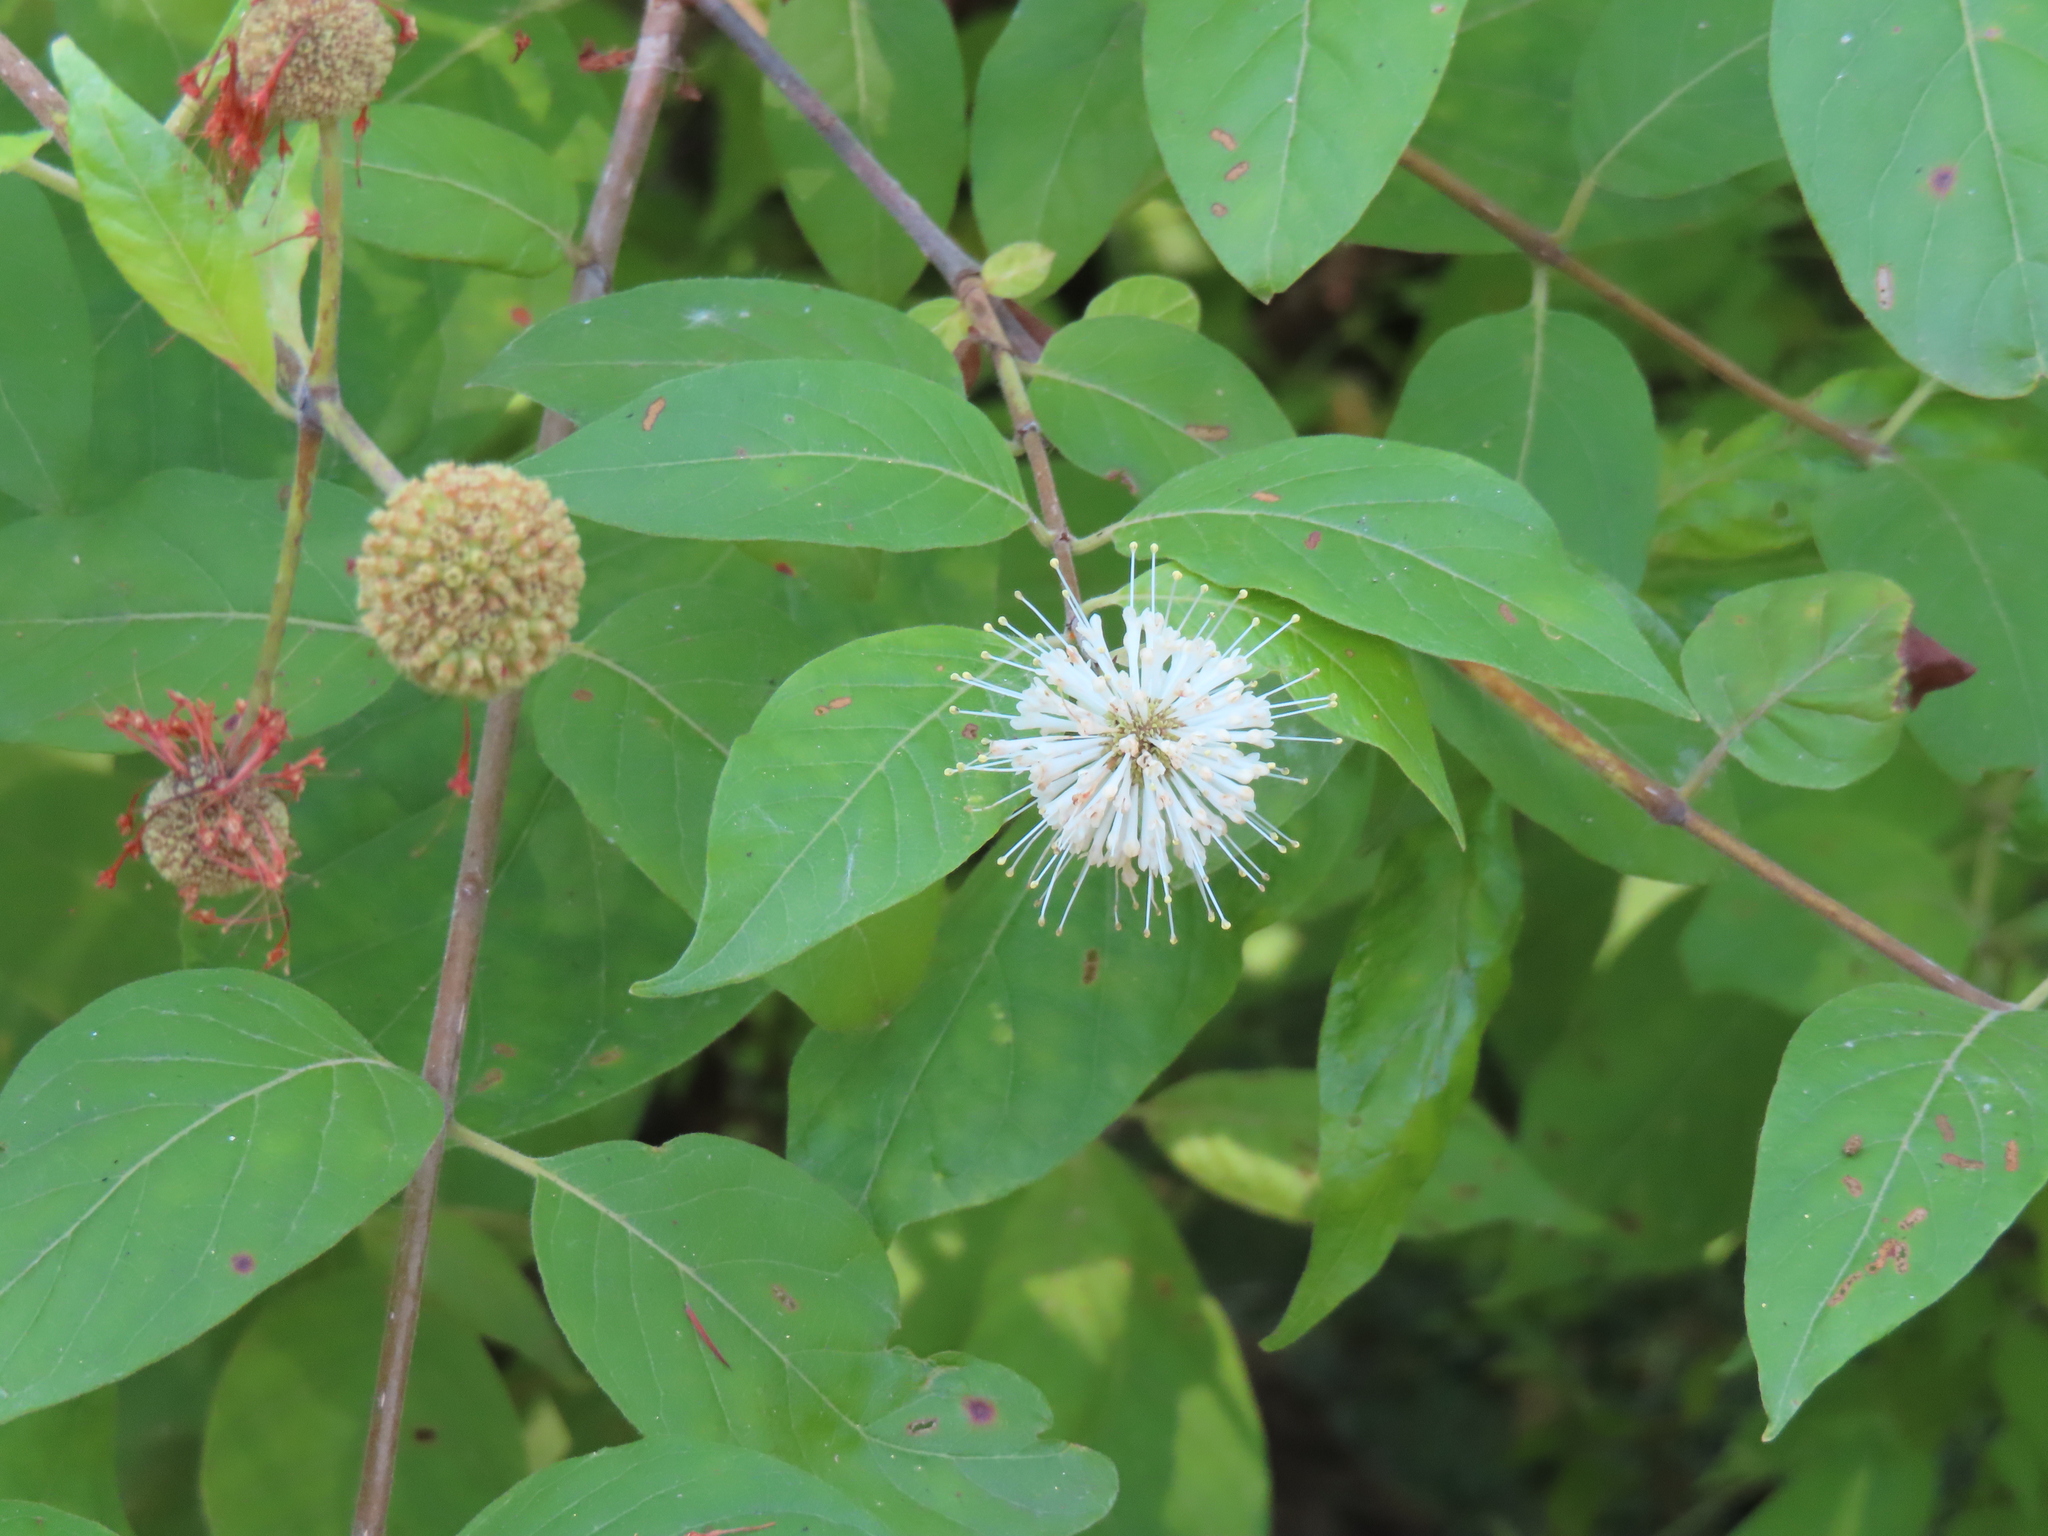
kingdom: Plantae
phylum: Tracheophyta
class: Magnoliopsida
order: Gentianales
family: Rubiaceae
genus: Cephalanthus
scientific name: Cephalanthus occidentalis
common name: Button-willow
